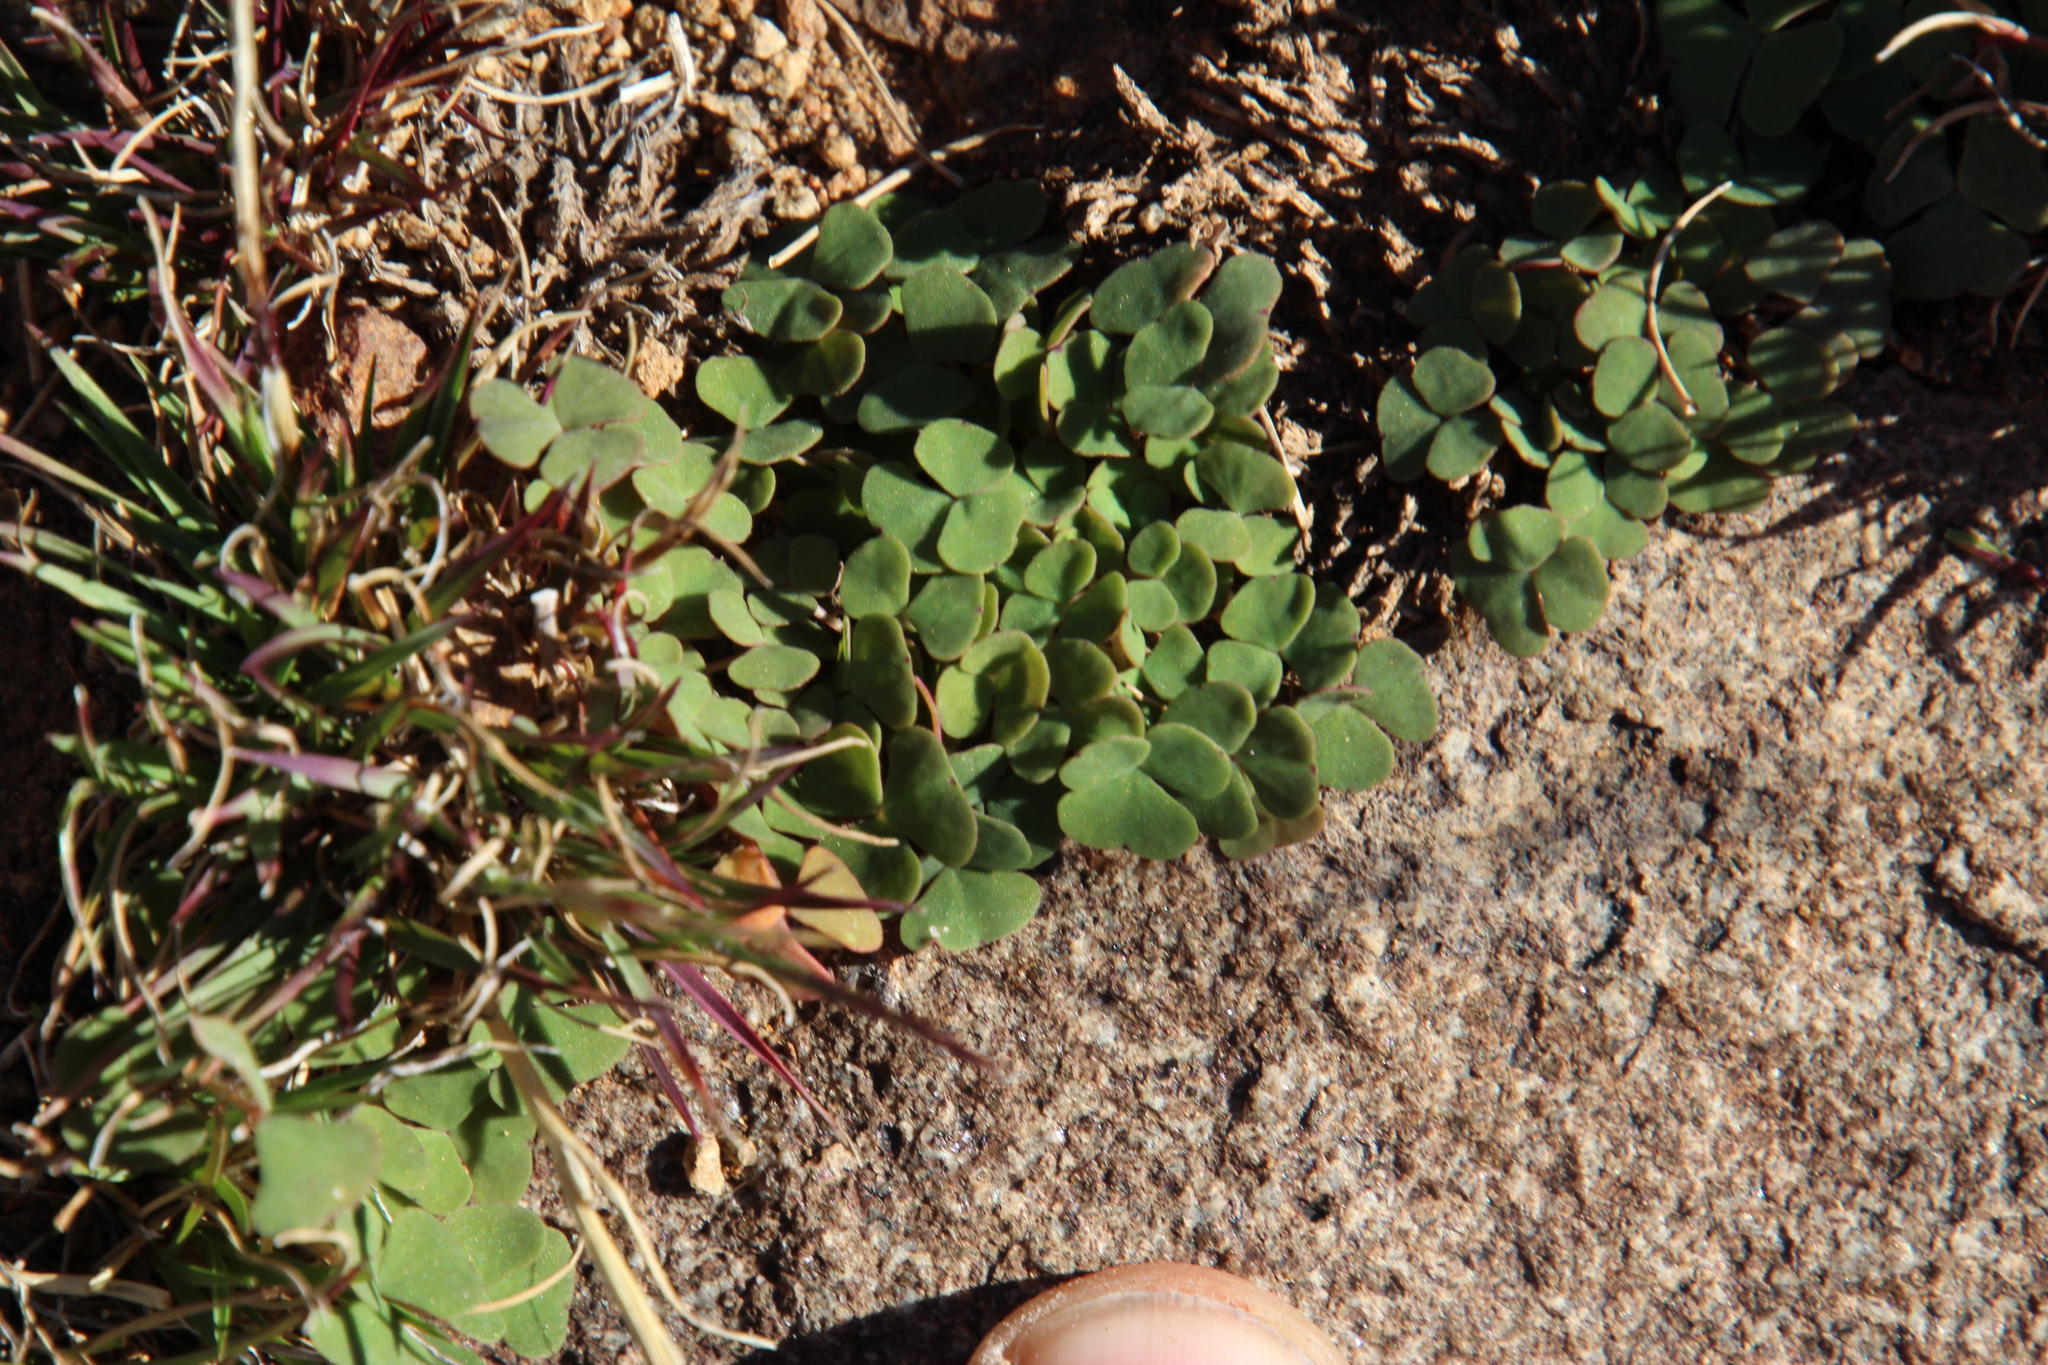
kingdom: Plantae
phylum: Tracheophyta
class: Magnoliopsida
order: Oxalidales
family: Oxalidaceae
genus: Oxalis
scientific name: Oxalis depressa
